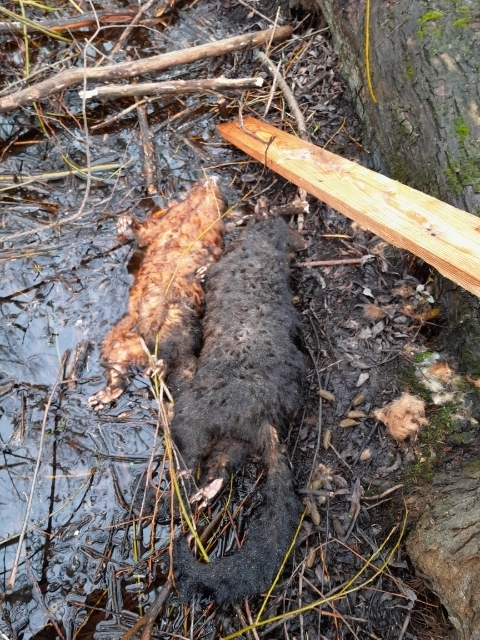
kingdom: Animalia
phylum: Chordata
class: Mammalia
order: Diprotodontia
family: Phalangeridae
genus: Trichosurus
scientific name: Trichosurus vulpecula
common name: Common brushtail
